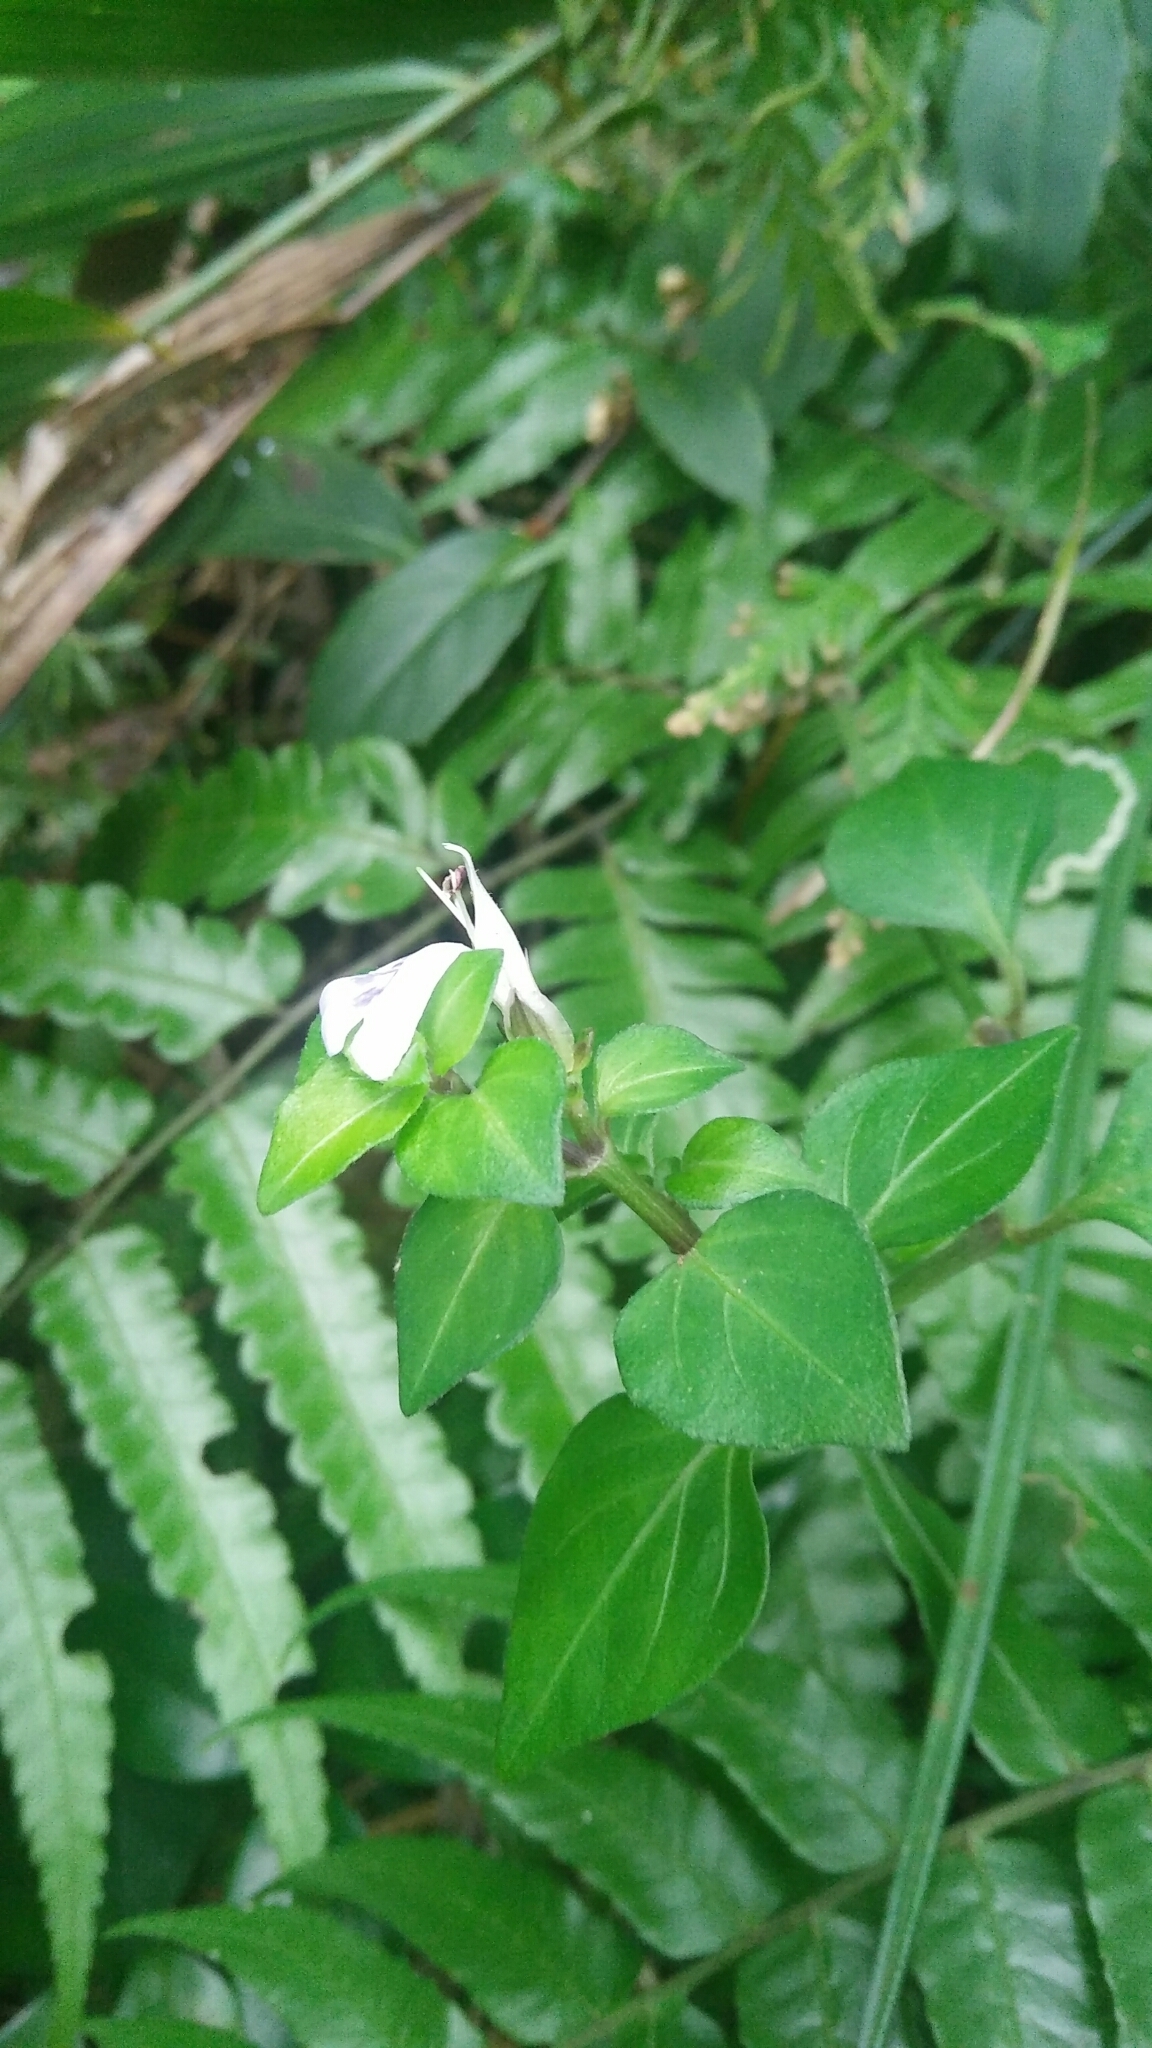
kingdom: Plantae
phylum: Tracheophyta
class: Magnoliopsida
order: Lamiales
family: Acanthaceae
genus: Rungia
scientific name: Rungia chinensis
